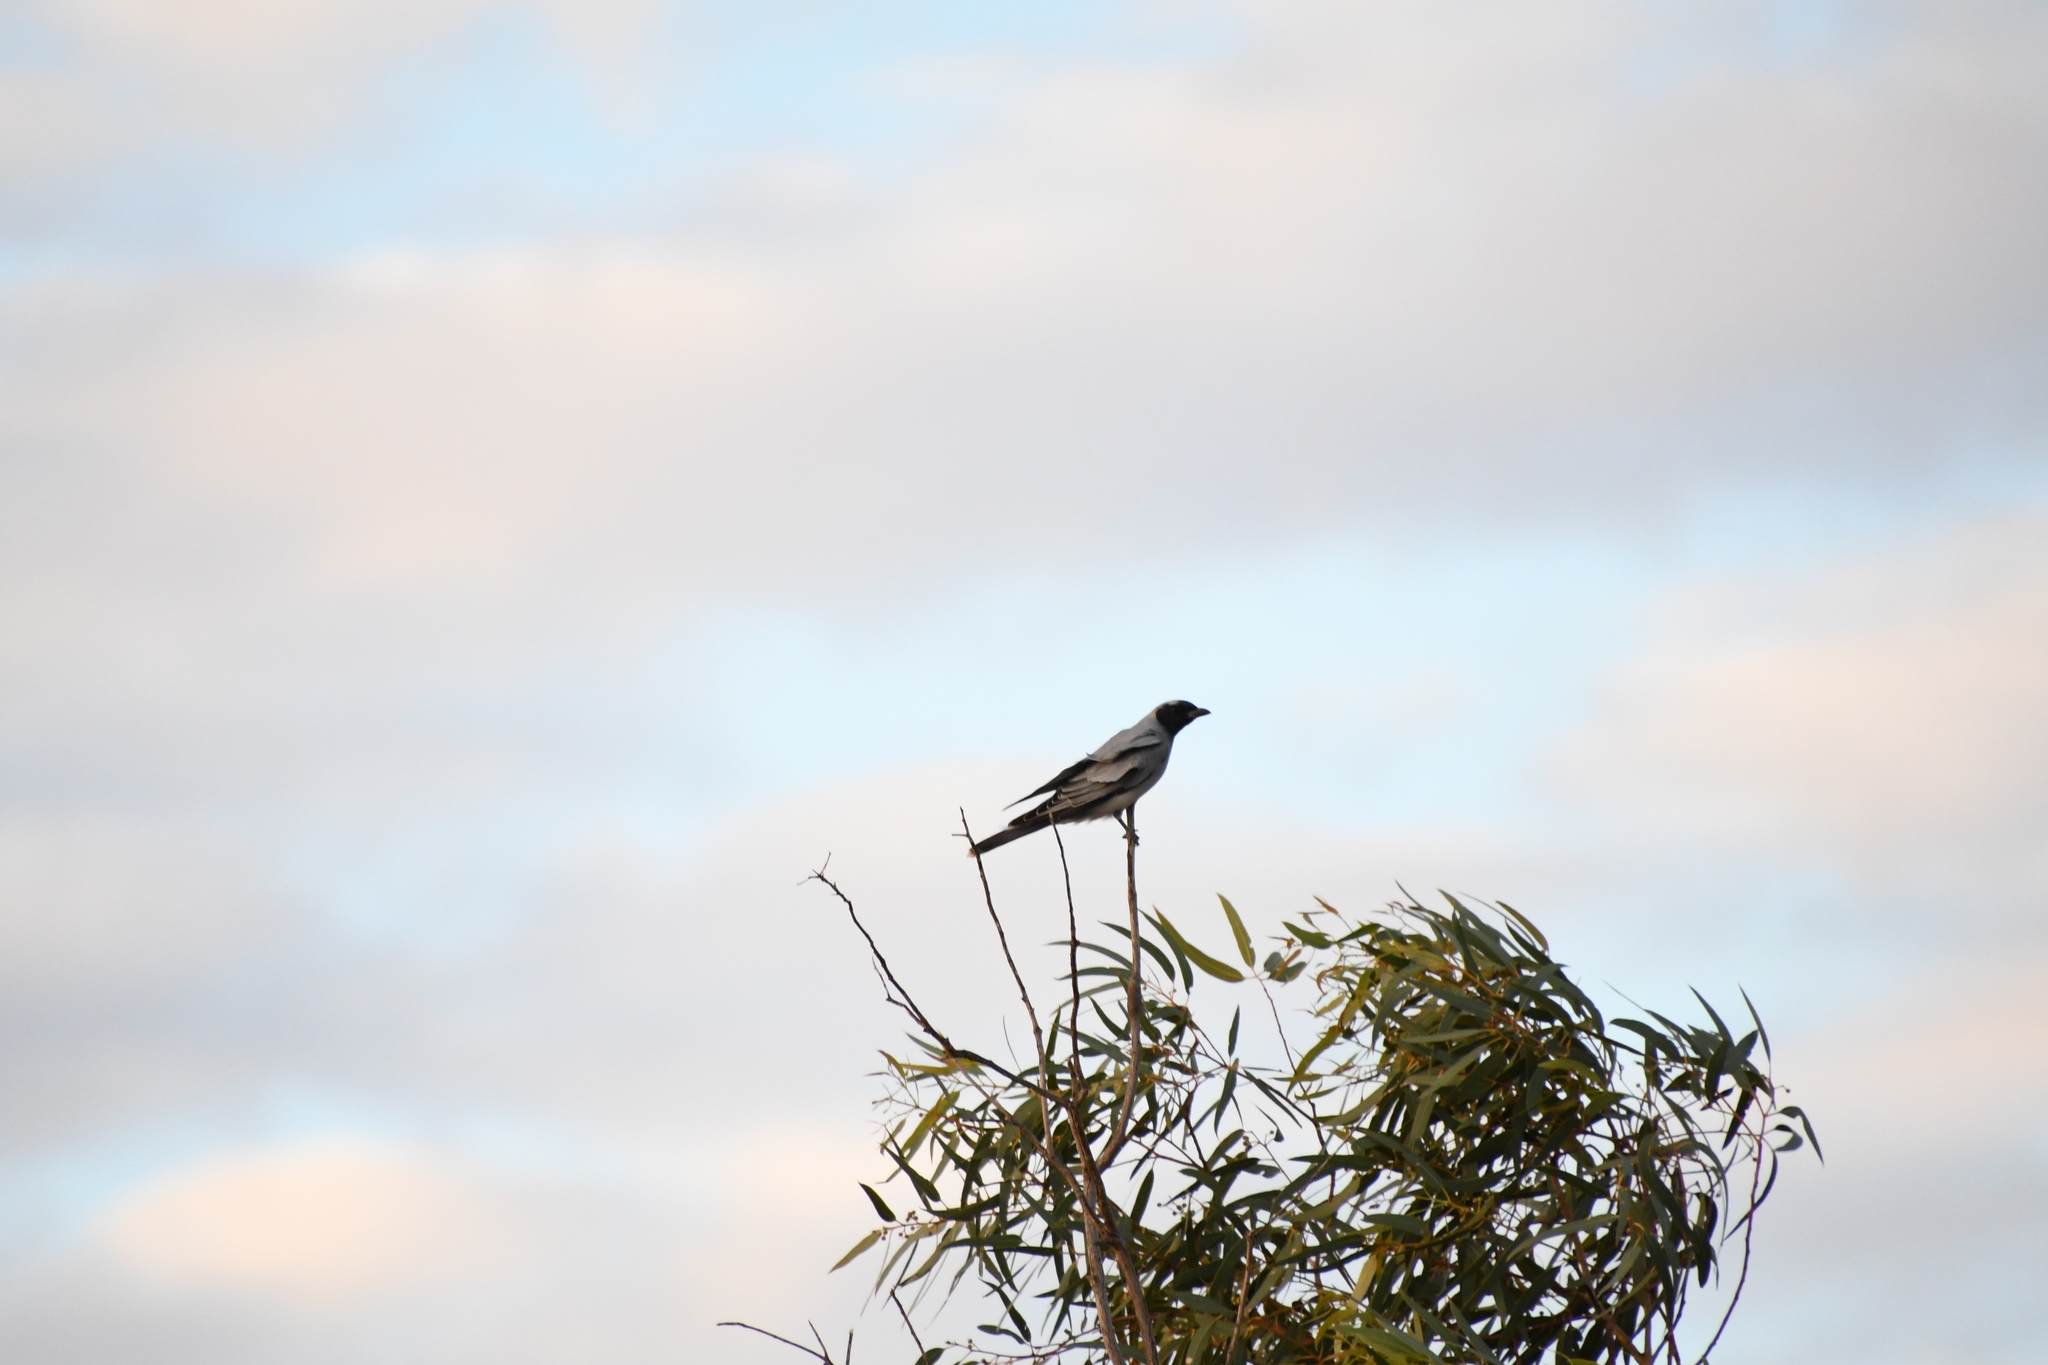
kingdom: Animalia
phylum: Chordata
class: Aves
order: Passeriformes
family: Campephagidae
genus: Coracina
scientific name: Coracina novaehollandiae
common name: Black-faced cuckooshrike
